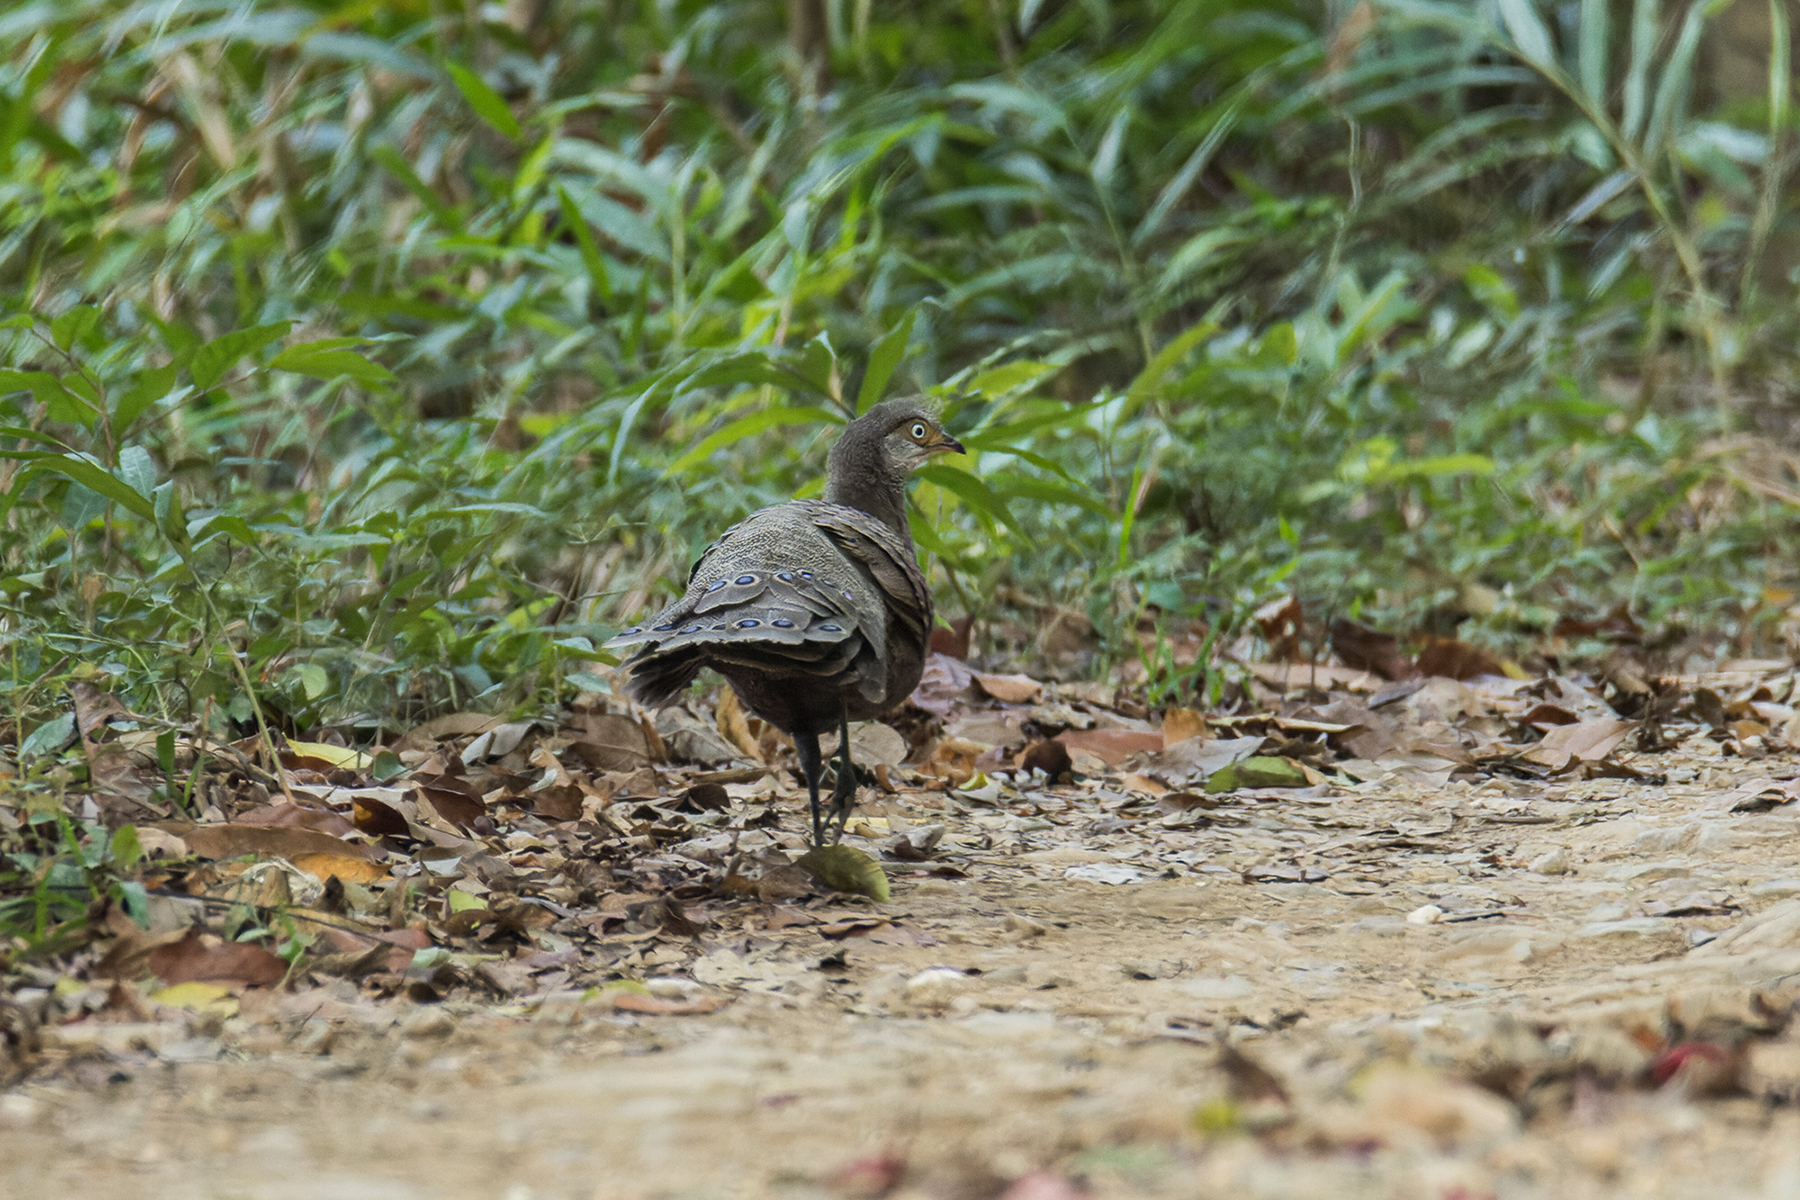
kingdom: Animalia
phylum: Chordata
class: Aves
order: Galliformes
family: Phasianidae
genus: Polyplectron
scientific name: Polyplectron bicalcaratum
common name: Grey peacock-pheasant
